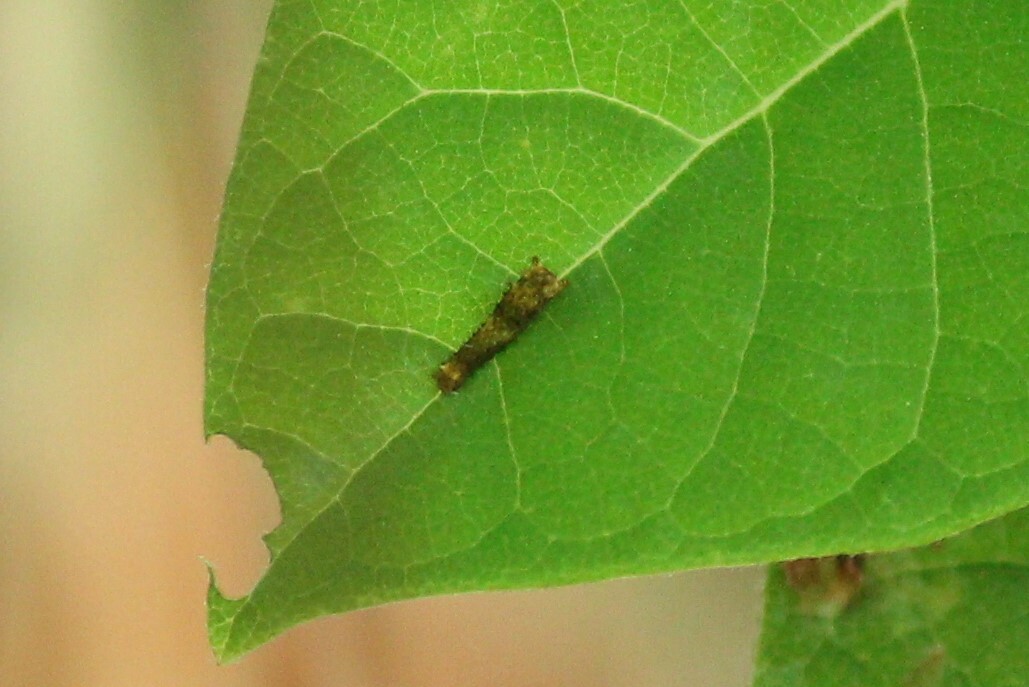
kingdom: Animalia
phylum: Arthropoda
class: Insecta
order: Lepidoptera
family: Papilionidae
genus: Papilio
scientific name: Papilio troilus
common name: Spicebush swallowtail
